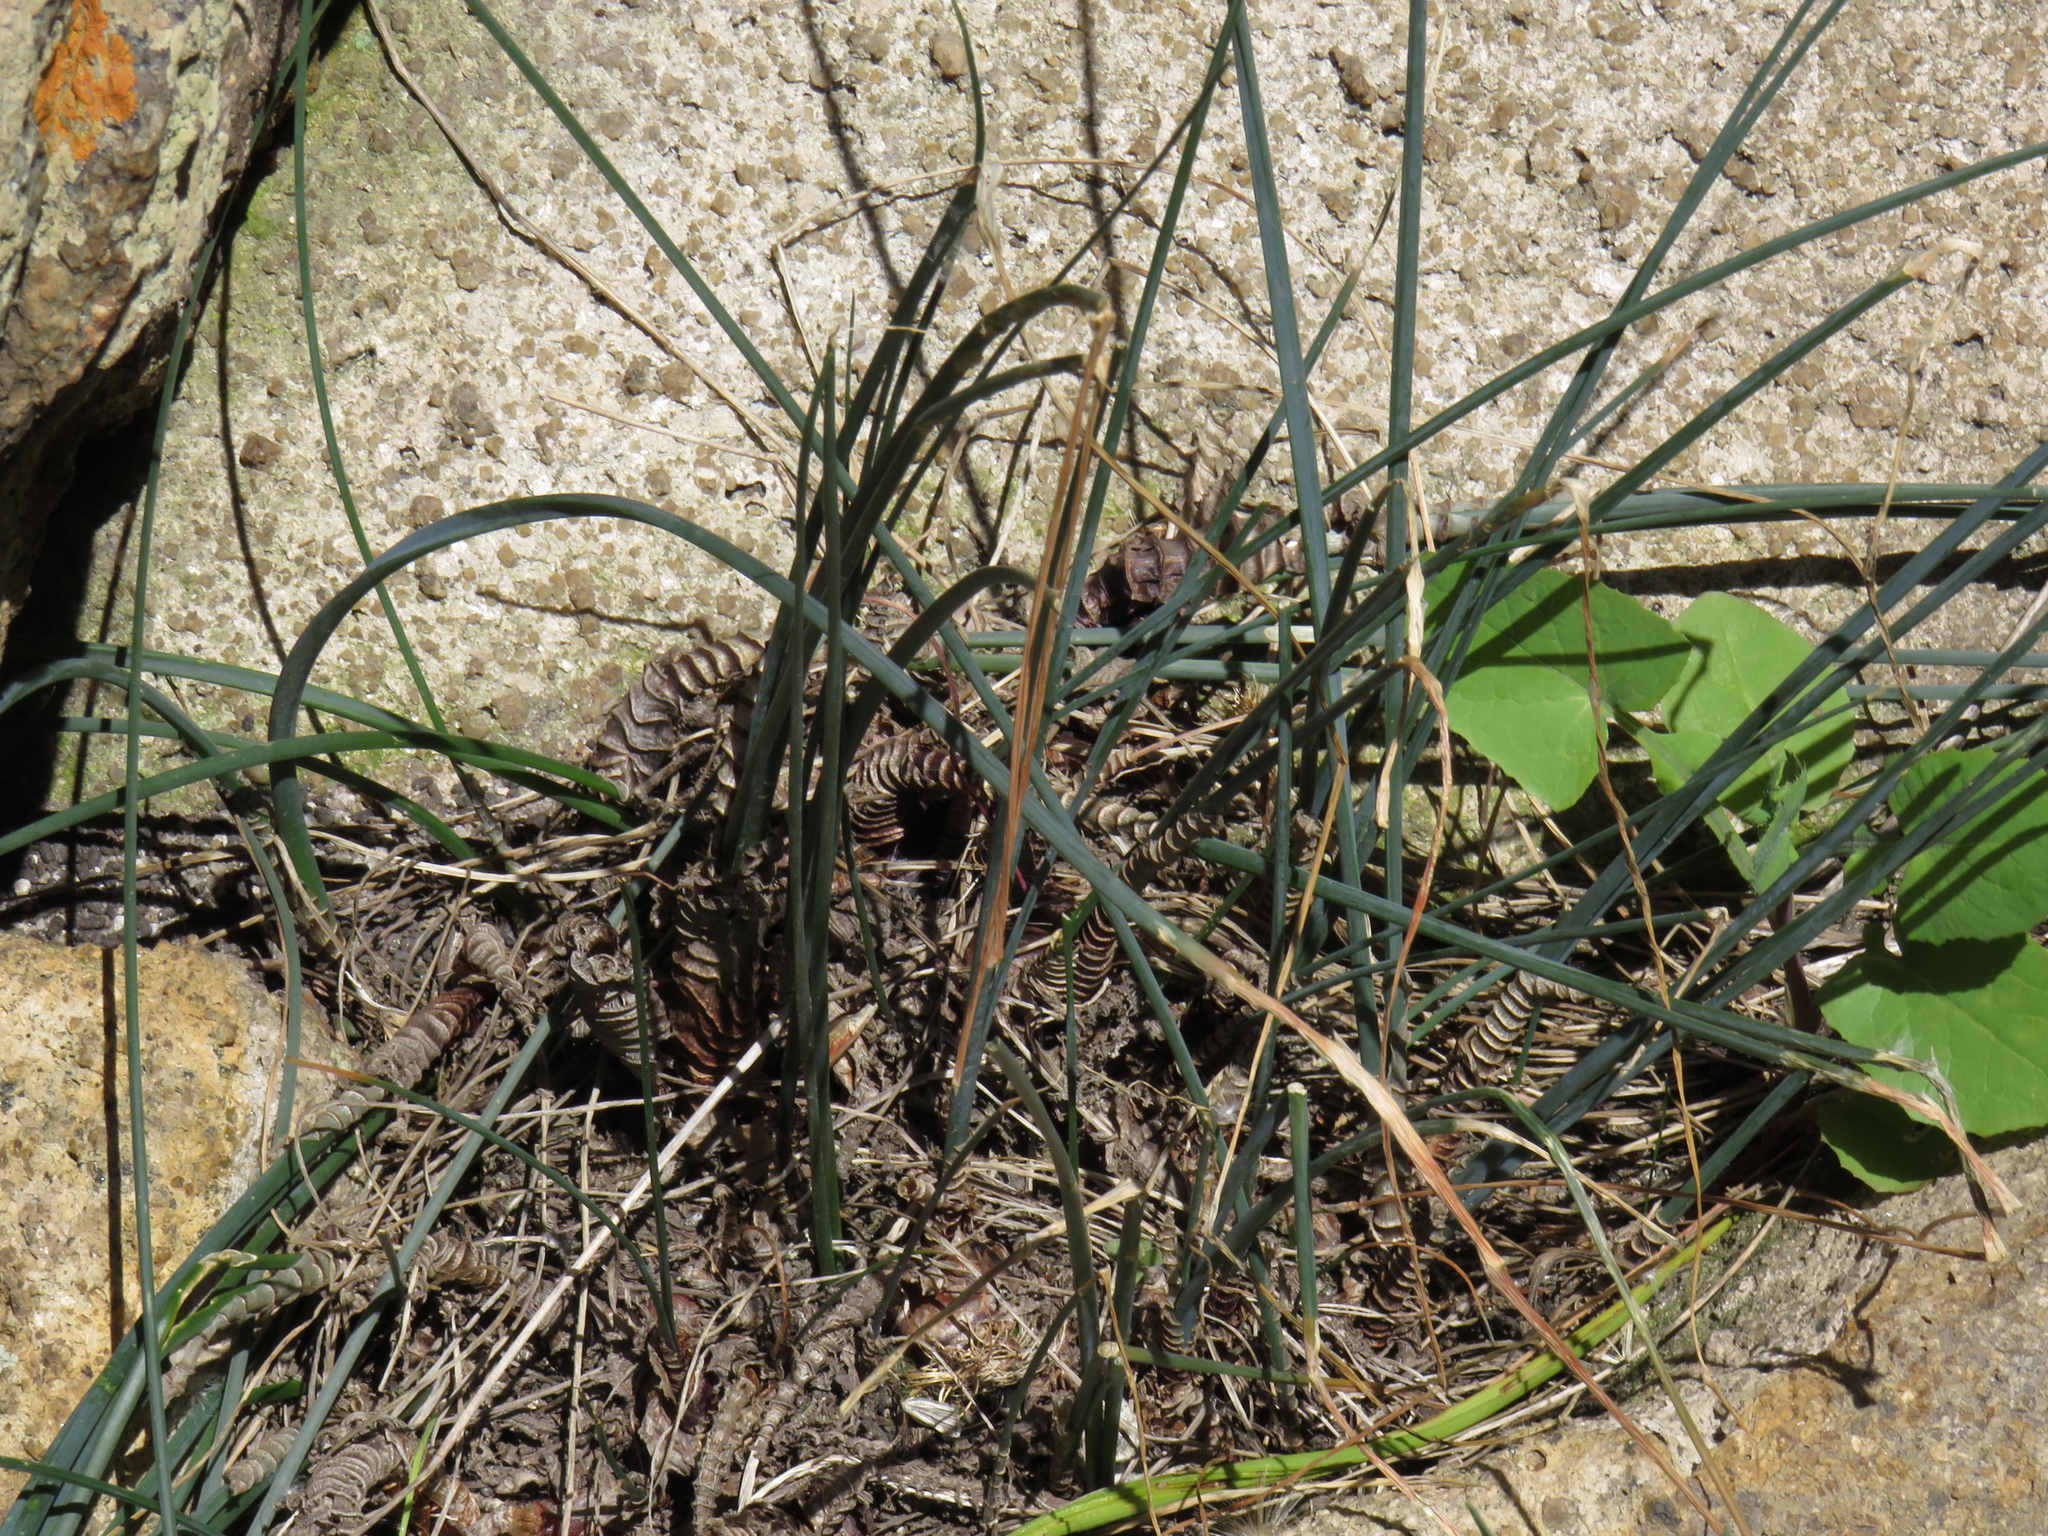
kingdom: Plantae
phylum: Tracheophyta
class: Liliopsida
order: Asparagales
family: Asparagaceae
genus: Drimia
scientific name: Drimia exuviata
